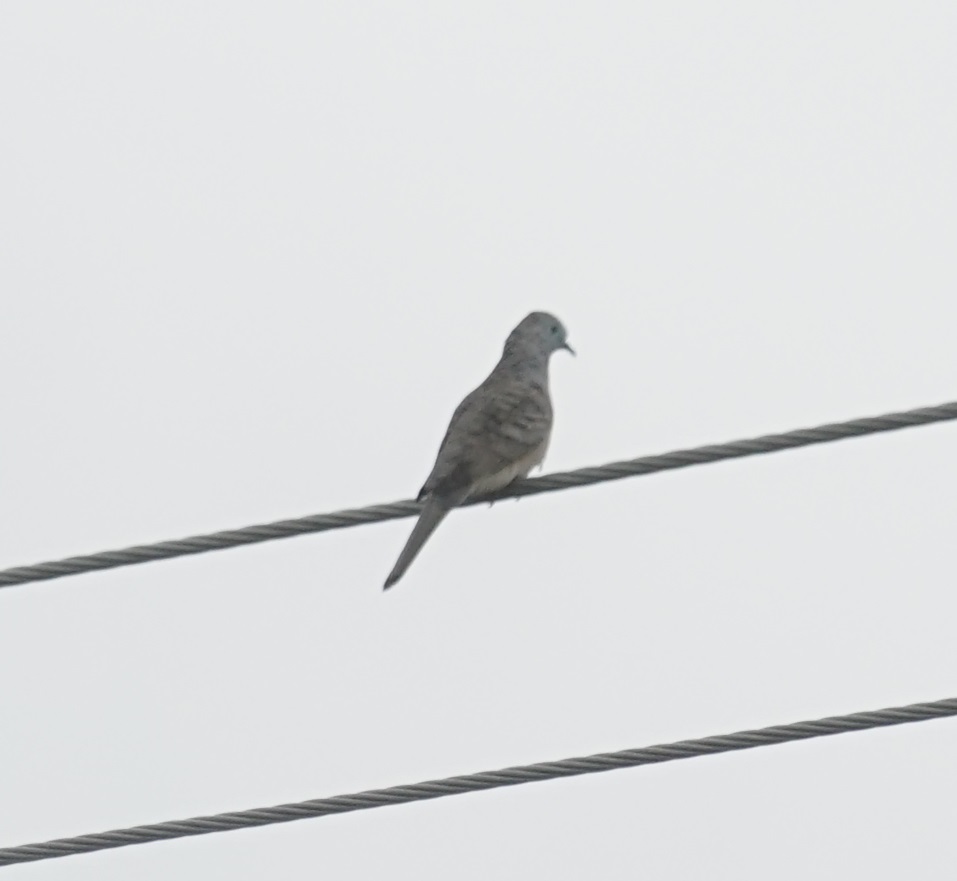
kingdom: Animalia
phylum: Chordata
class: Aves
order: Columbiformes
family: Columbidae
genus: Geopelia
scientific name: Geopelia placida
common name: Peaceful dove
